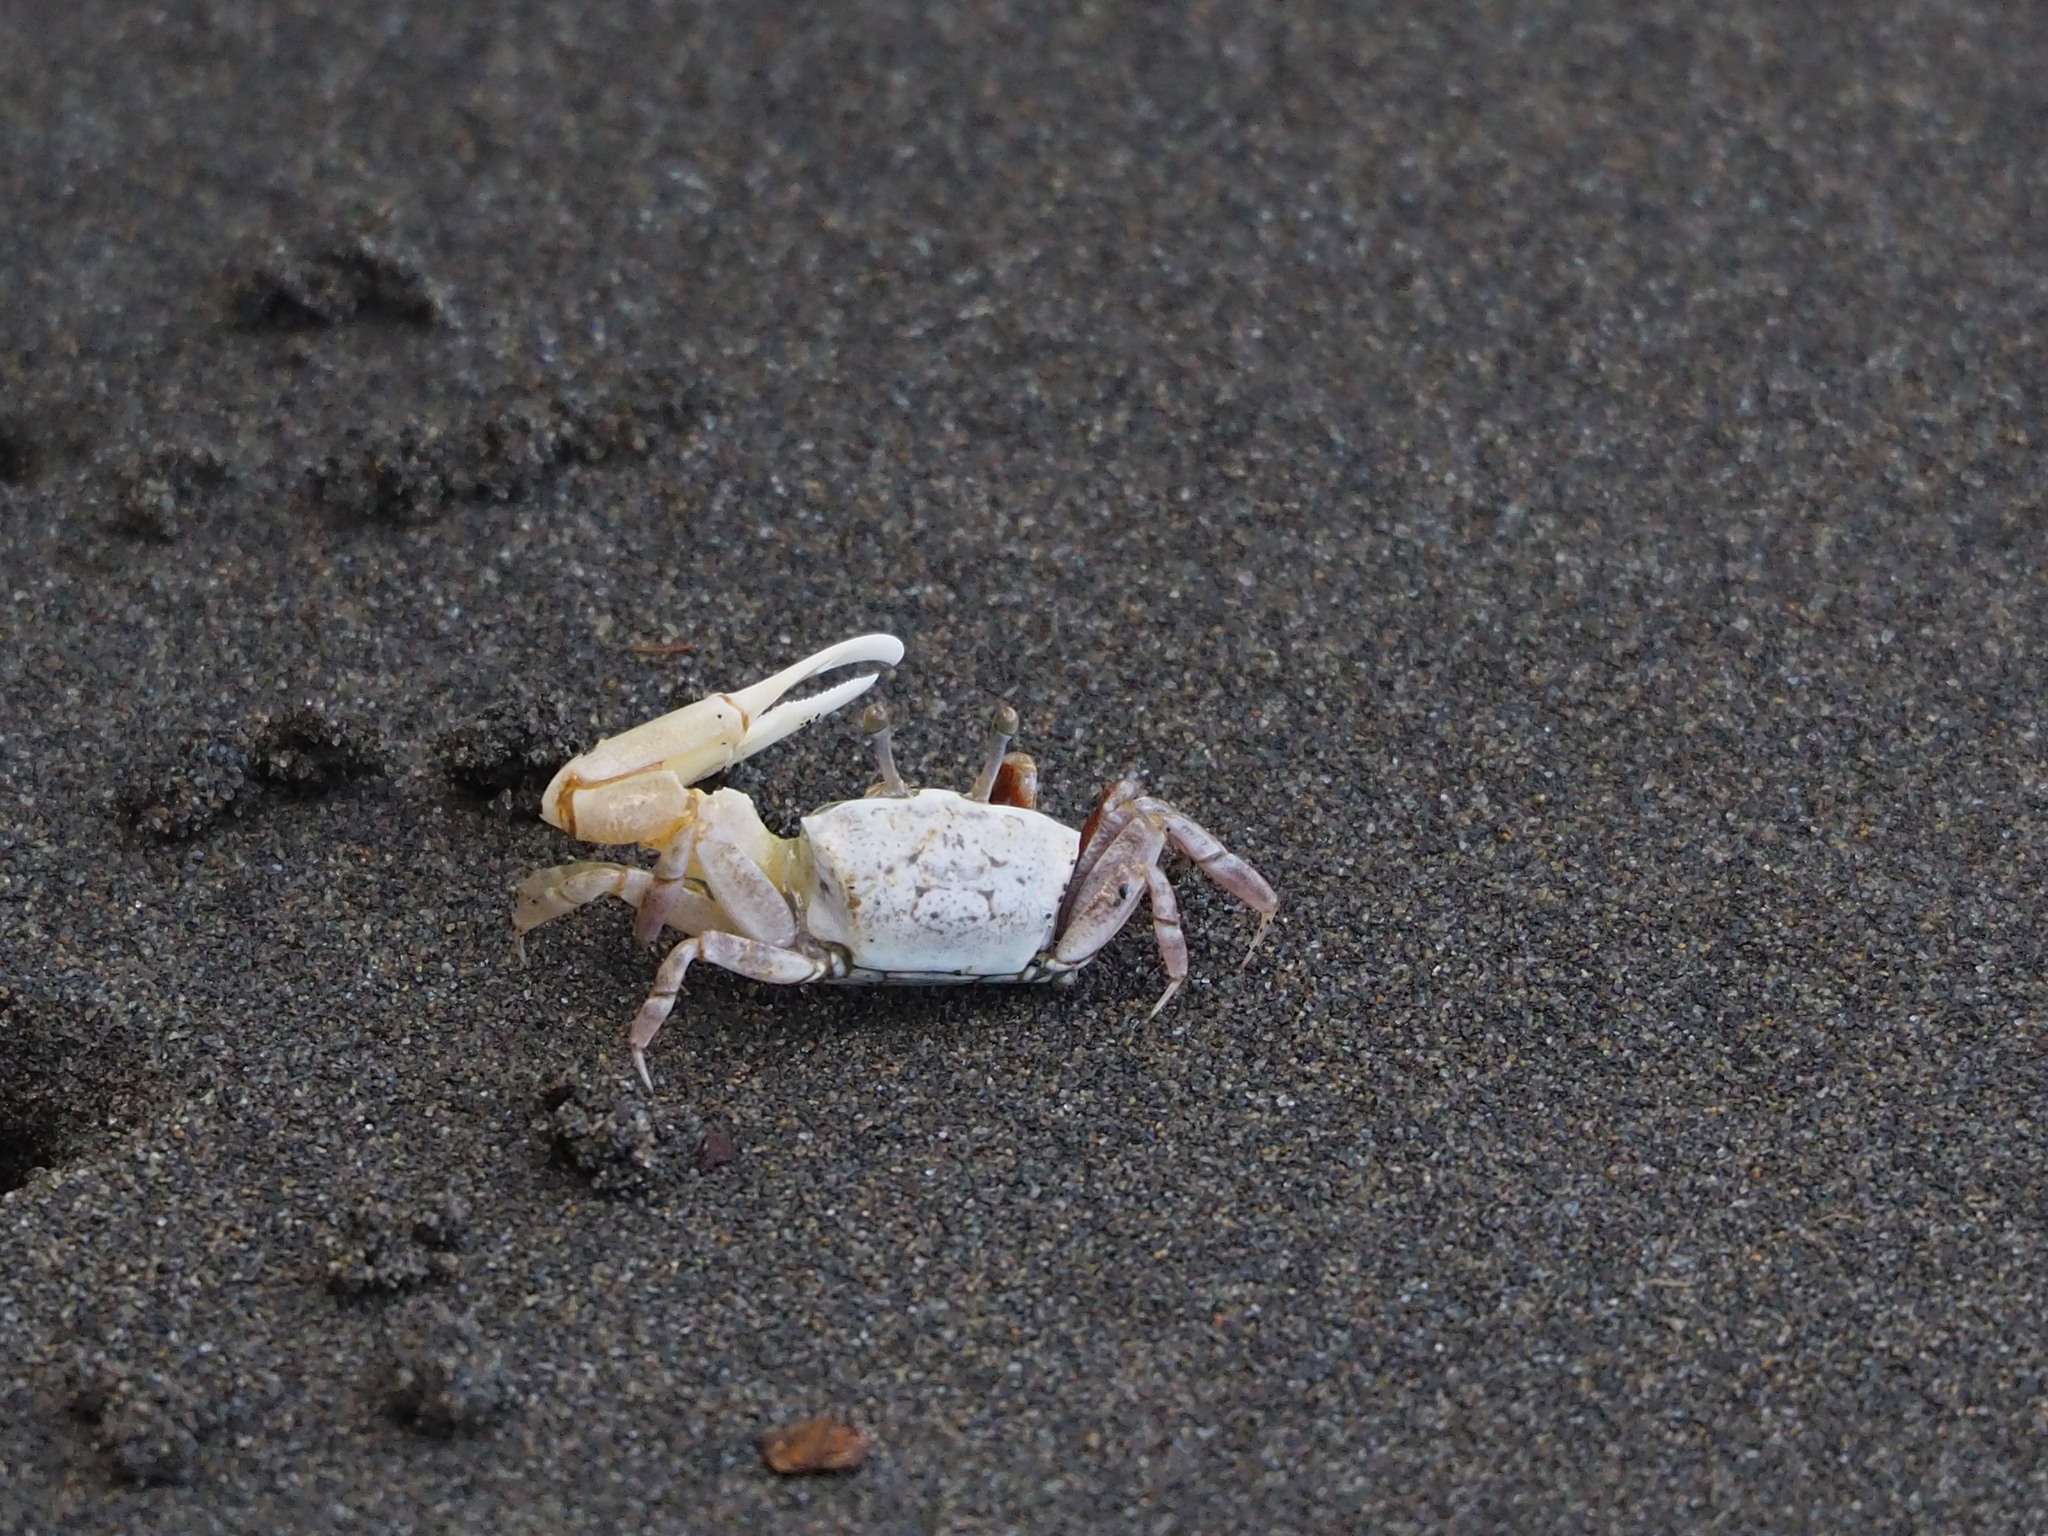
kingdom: Animalia
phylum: Arthropoda
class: Malacostraca
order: Decapoda
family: Ocypodidae
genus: Austruca
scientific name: Austruca lactea
